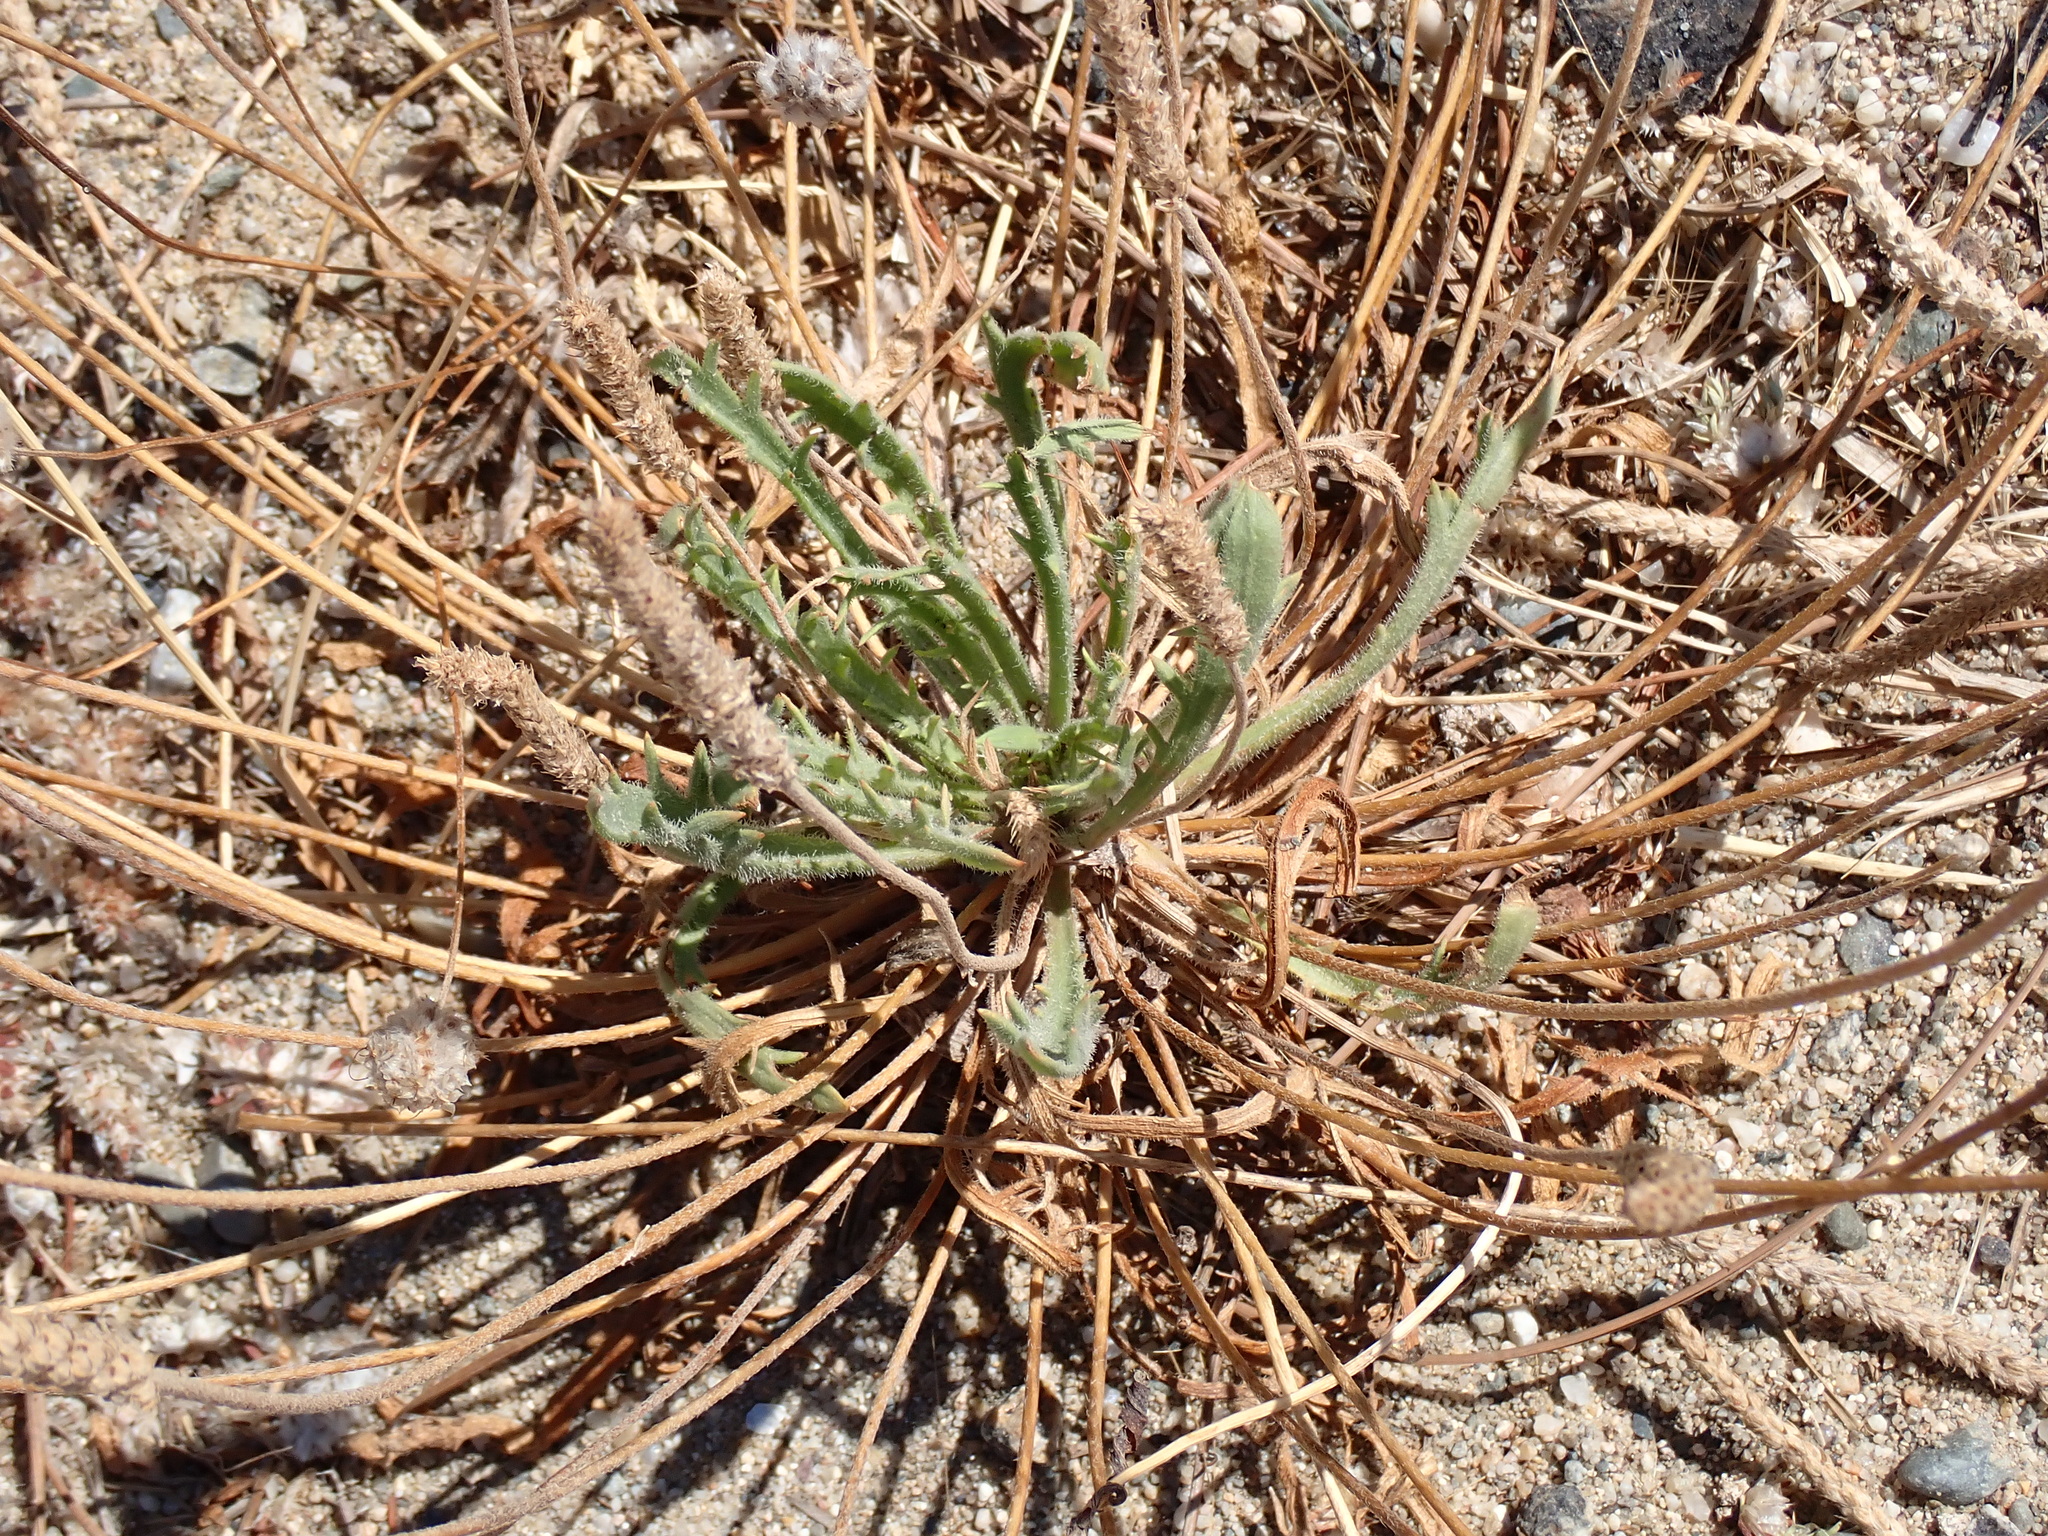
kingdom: Plantae
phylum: Tracheophyta
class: Magnoliopsida
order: Lamiales
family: Plantaginaceae
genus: Plantago
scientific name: Plantago coronopus
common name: Buck's-horn plantain
